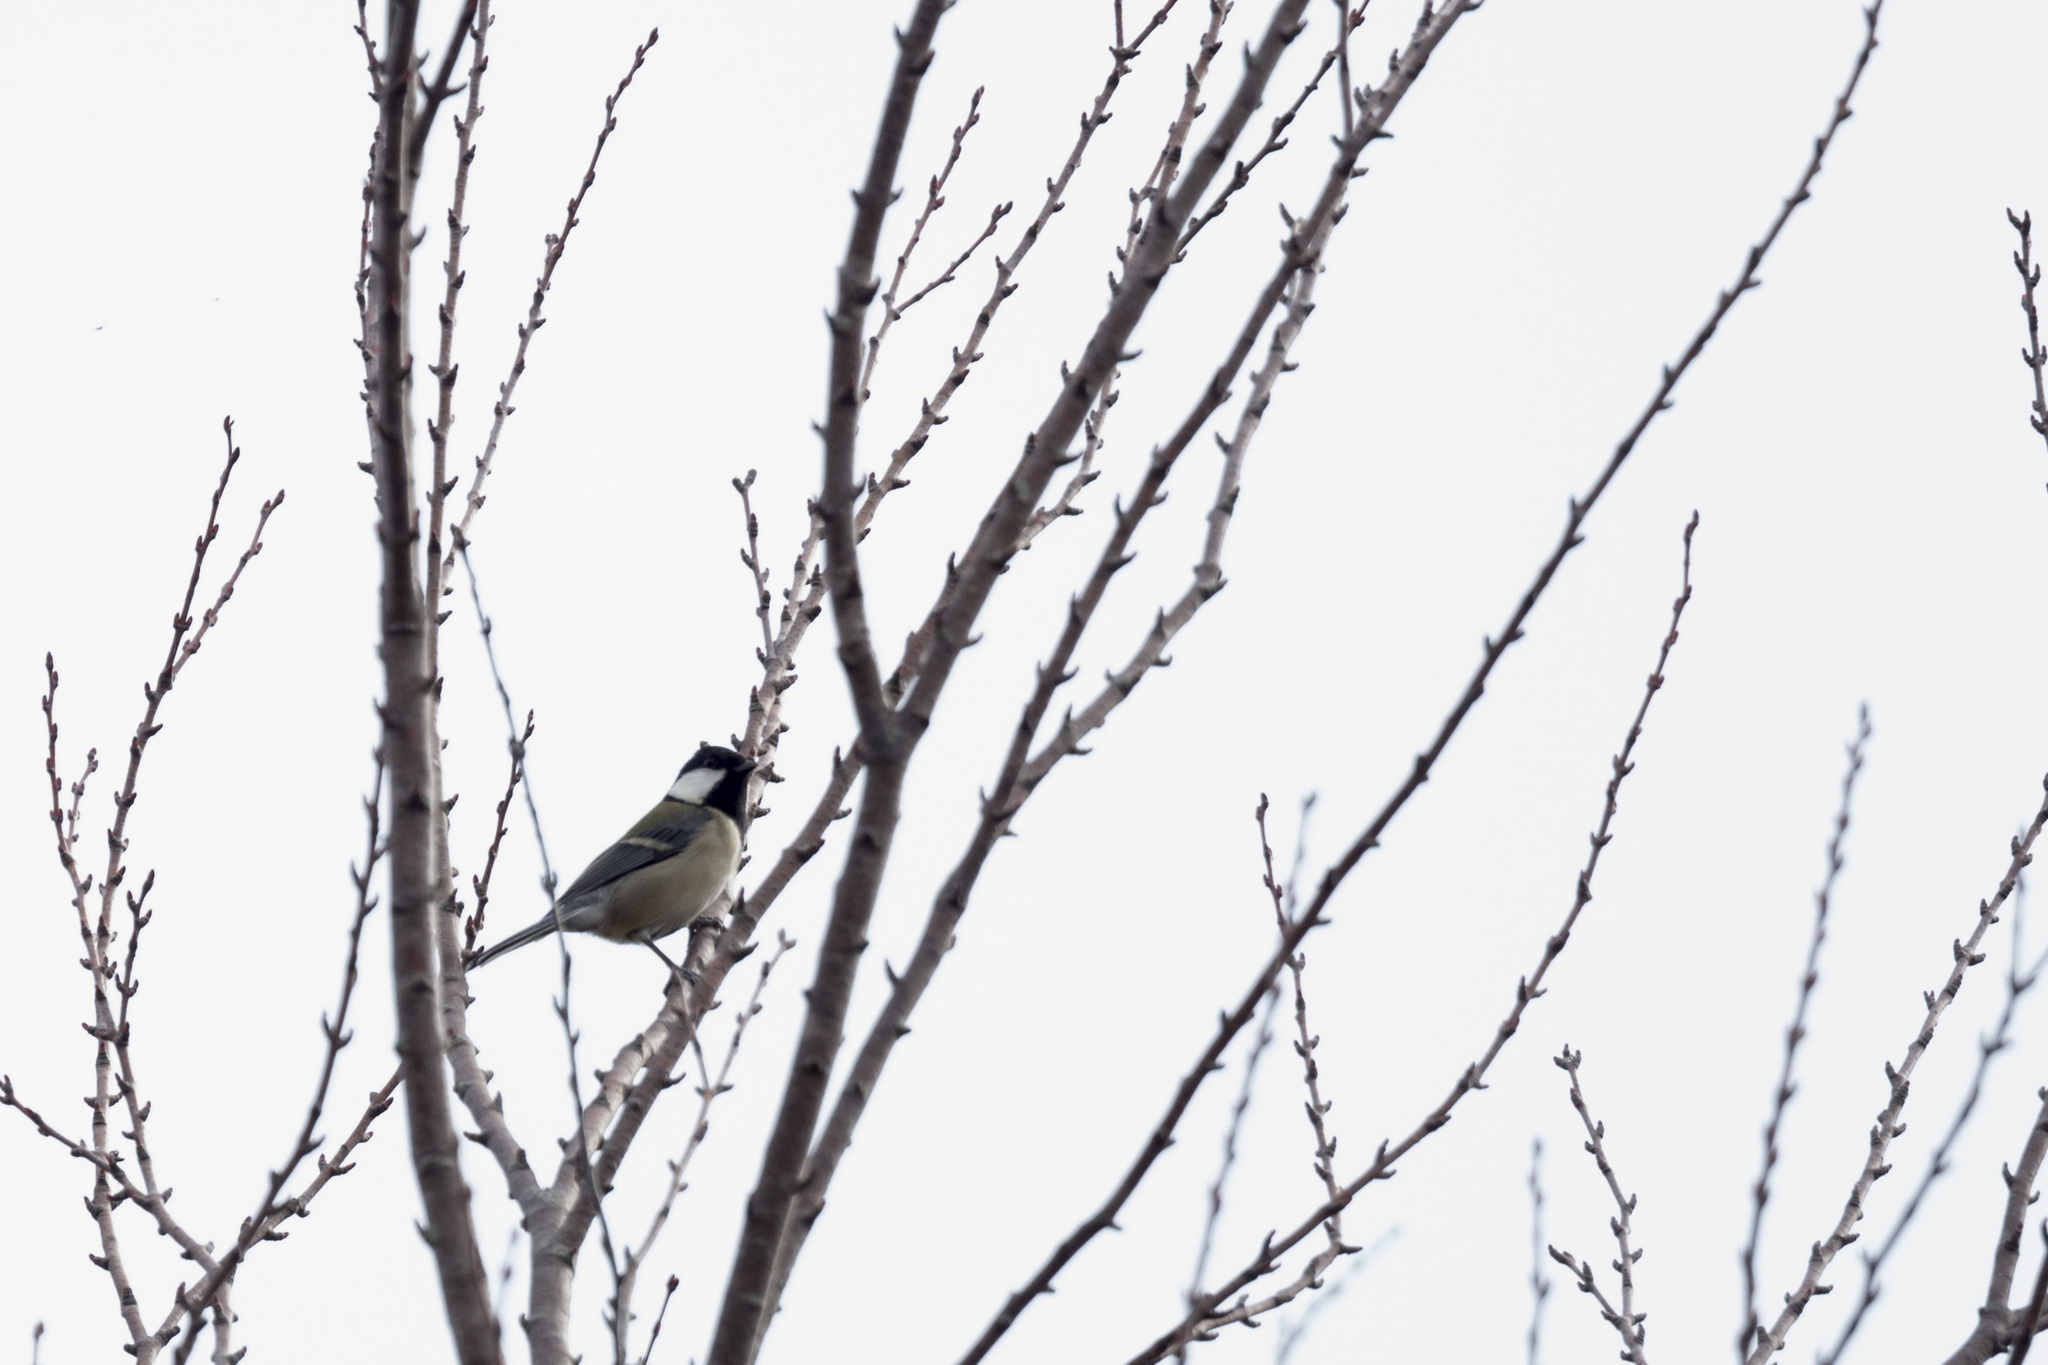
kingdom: Animalia
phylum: Chordata
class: Aves
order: Passeriformes
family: Paridae
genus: Parus
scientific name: Parus minor
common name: Japanese tit
